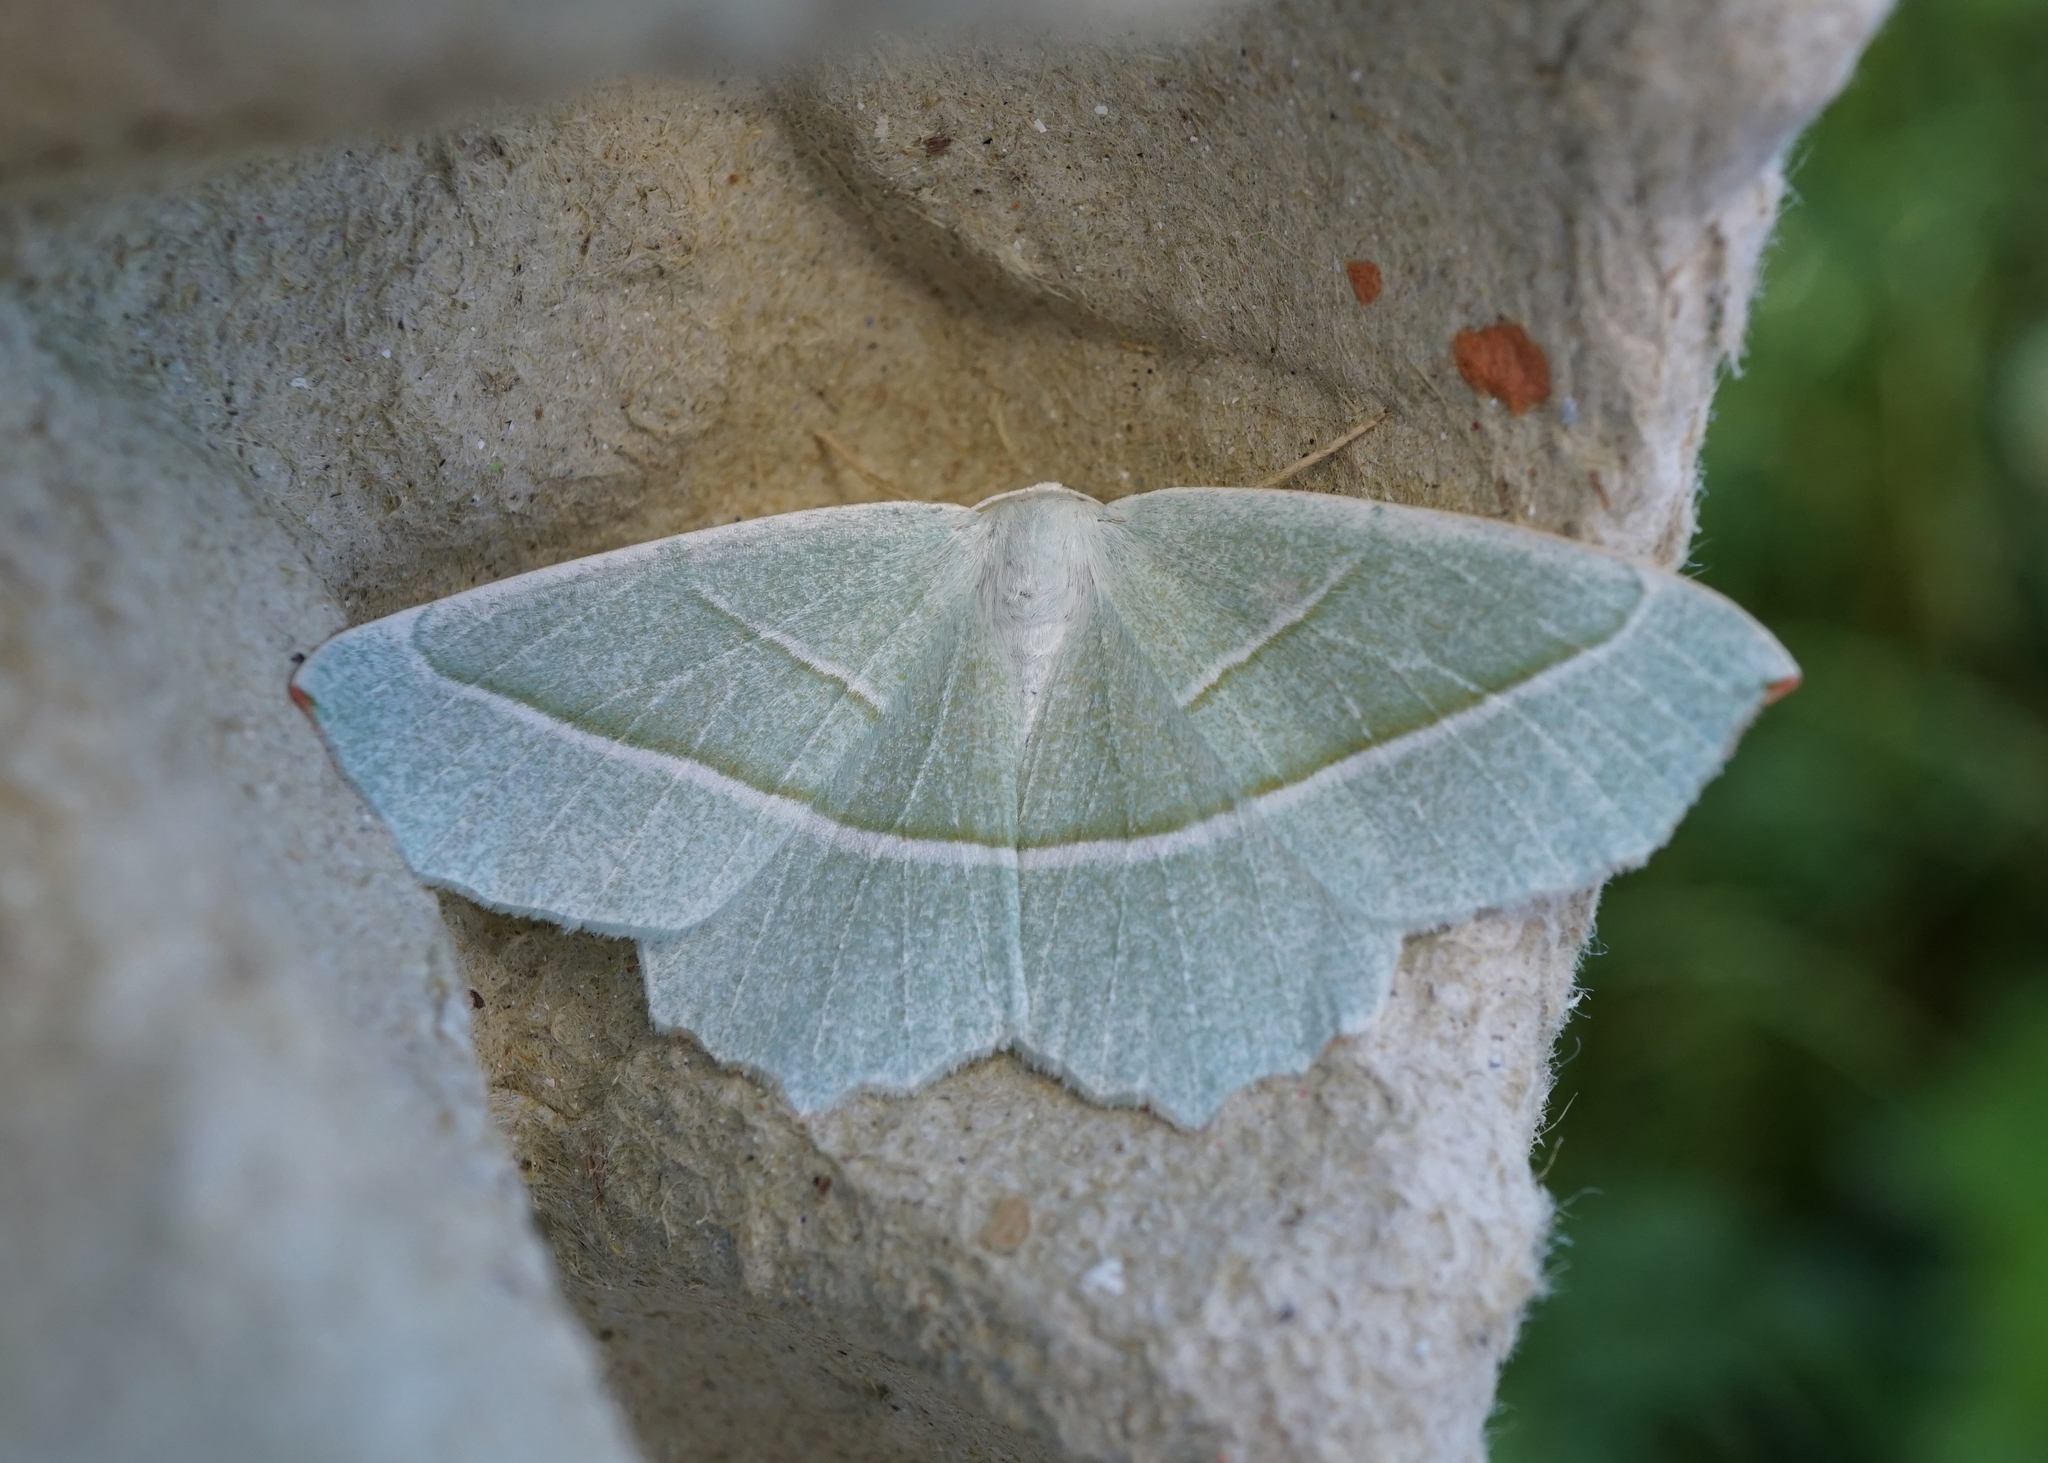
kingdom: Animalia
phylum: Arthropoda
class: Insecta
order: Lepidoptera
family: Geometridae
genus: Campaea
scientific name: Campaea margaritaria
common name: Light emerald
